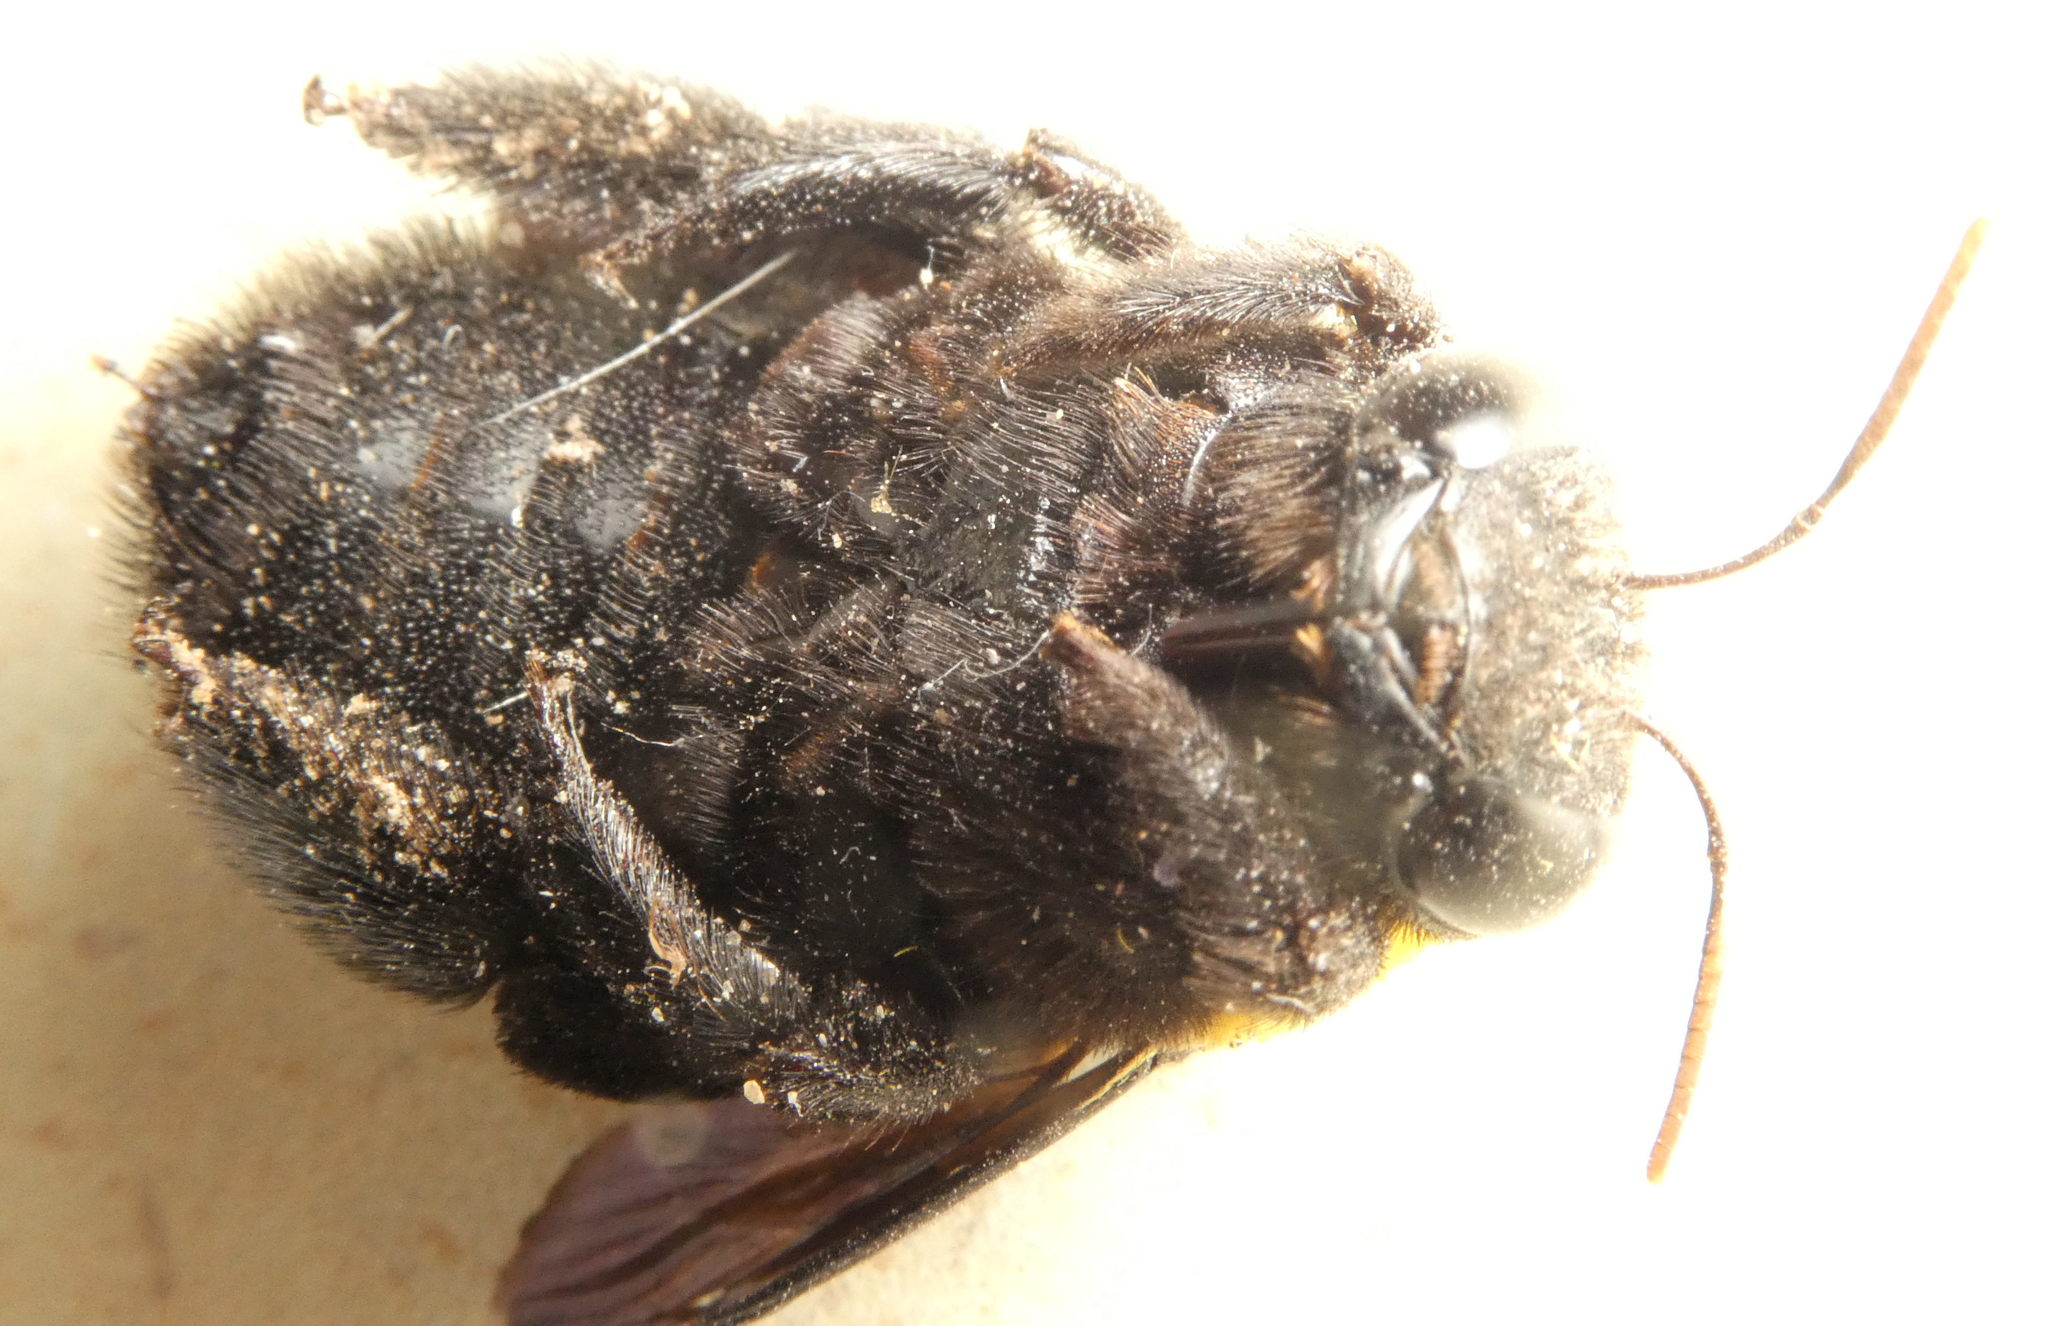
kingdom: Animalia
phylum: Arthropoda
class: Insecta
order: Hymenoptera
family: Apidae
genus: Xylocopa
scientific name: Xylocopa pubescens
